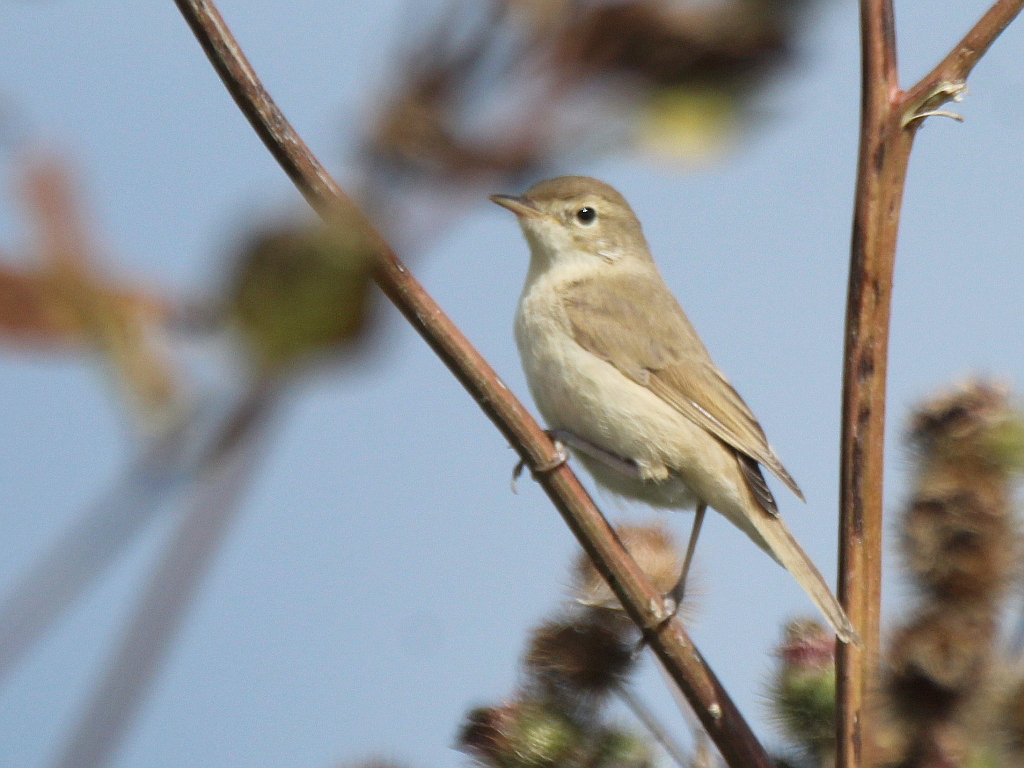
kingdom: Animalia
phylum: Chordata
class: Aves
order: Passeriformes
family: Acrocephalidae
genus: Iduna
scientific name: Iduna caligata
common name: Booted warbler
